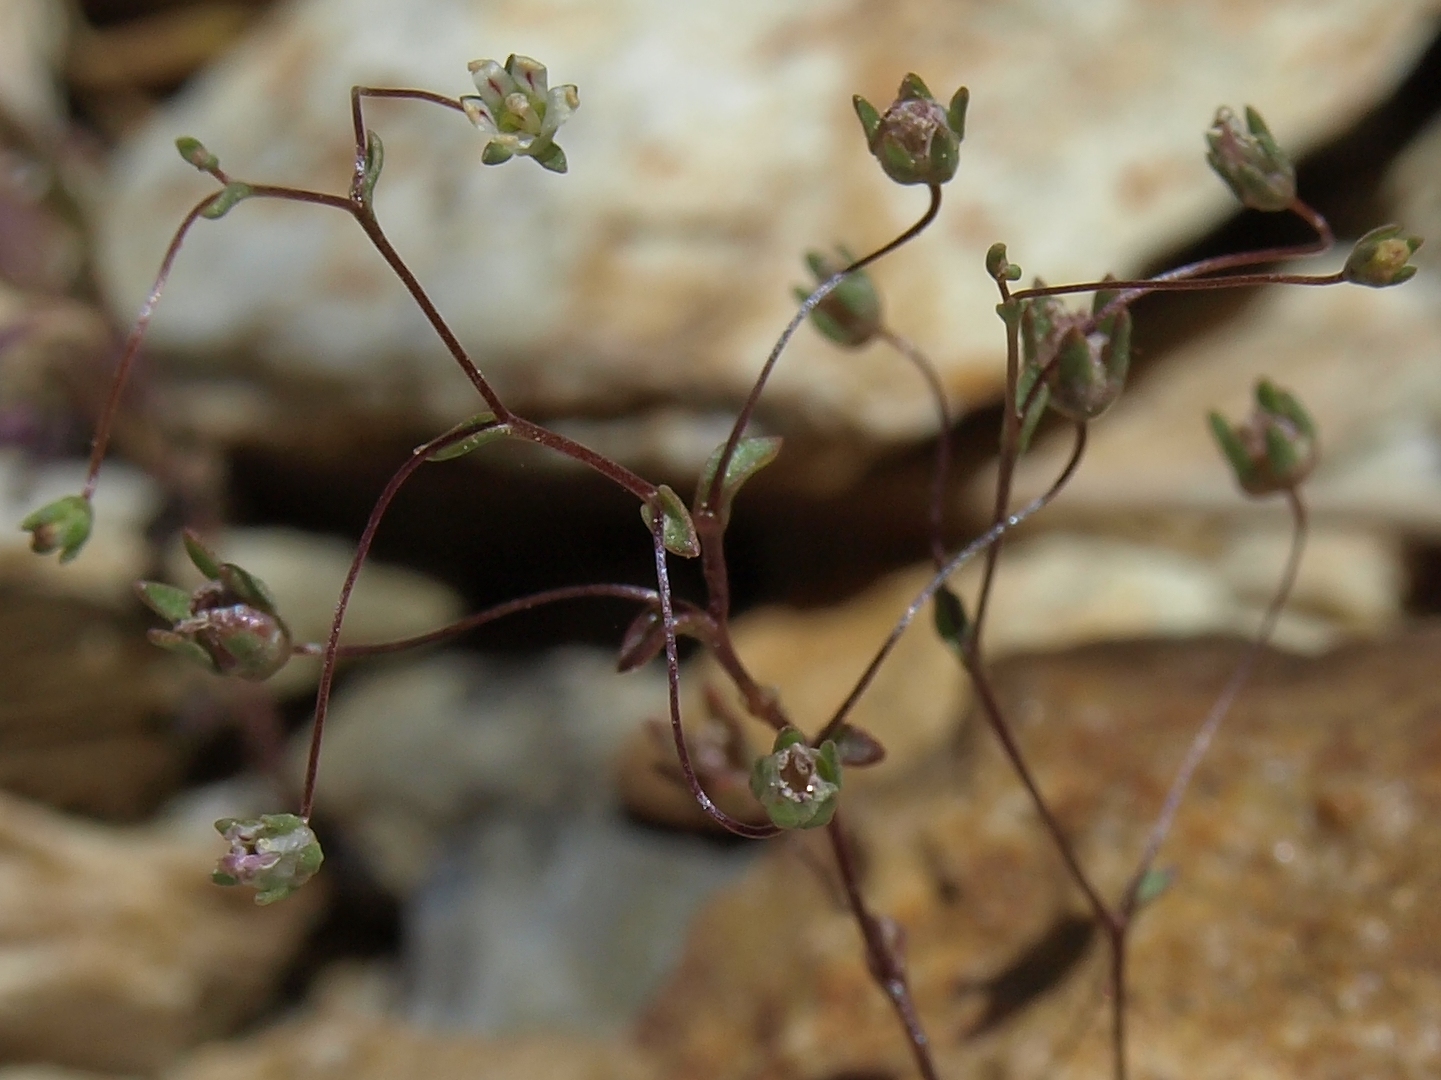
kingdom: Plantae
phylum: Tracheophyta
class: Magnoliopsida
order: Asterales
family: Campanulaceae
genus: Nemacladus
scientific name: Nemacladus inyoensis
